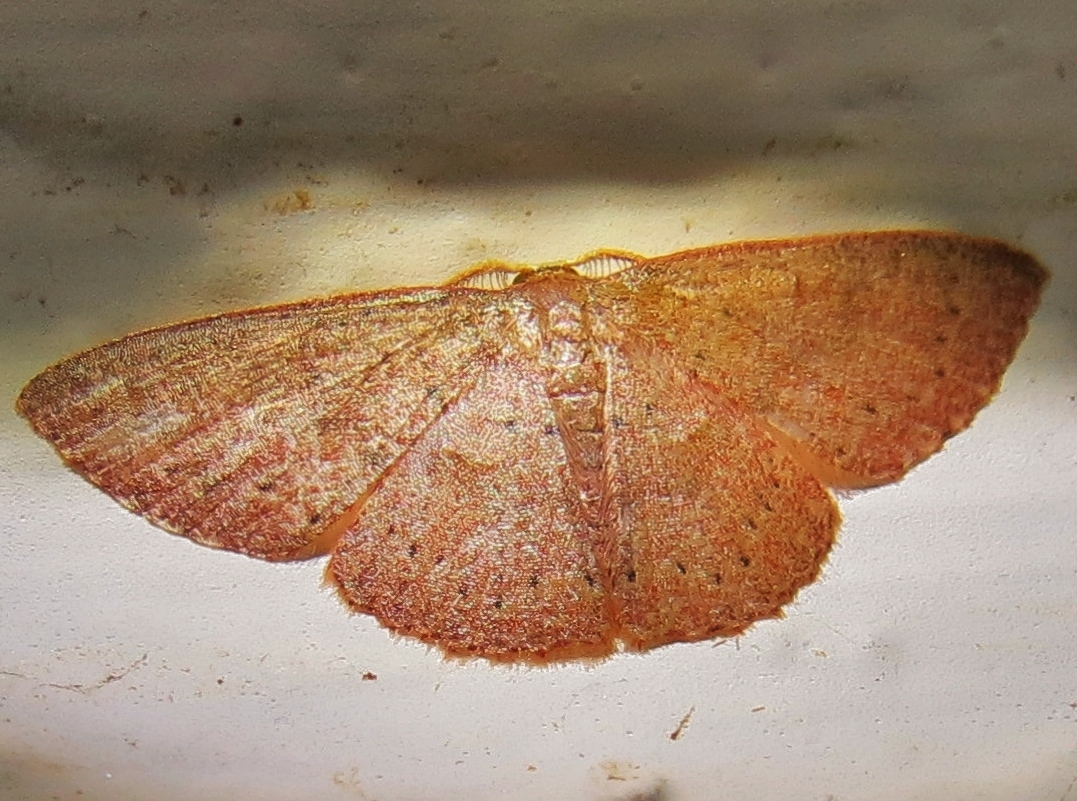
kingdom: Animalia
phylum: Arthropoda
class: Insecta
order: Lepidoptera
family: Geometridae
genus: Pleuroprucha
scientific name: Pleuroprucha insulsaria
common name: Common tan wave
